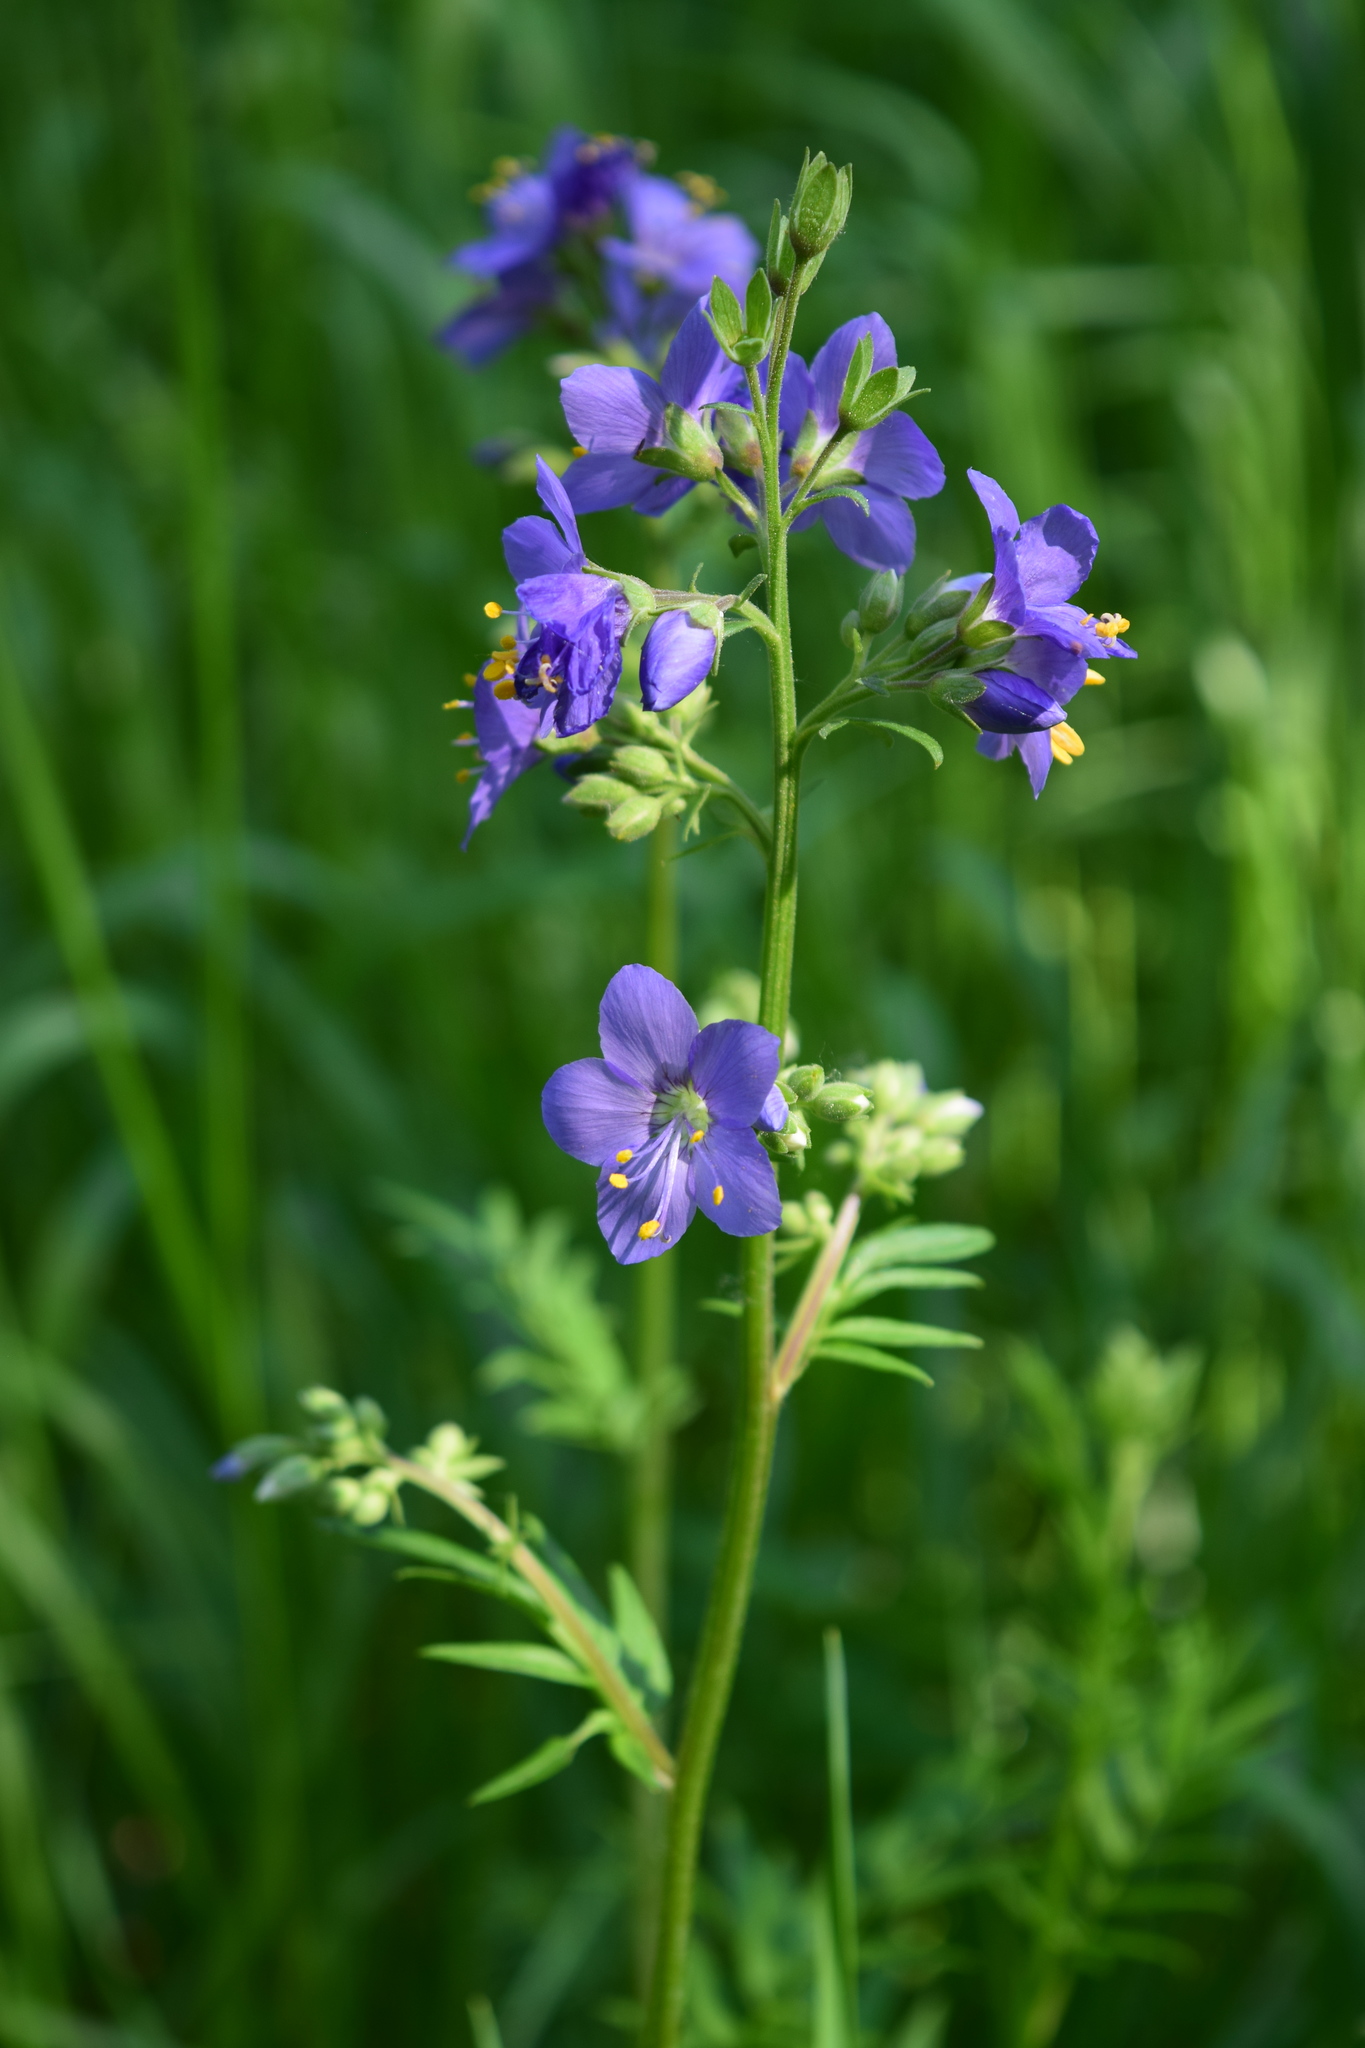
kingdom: Plantae
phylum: Tracheophyta
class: Magnoliopsida
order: Ericales
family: Polemoniaceae
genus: Polemonium
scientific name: Polemonium caeruleum
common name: Jacob's-ladder
